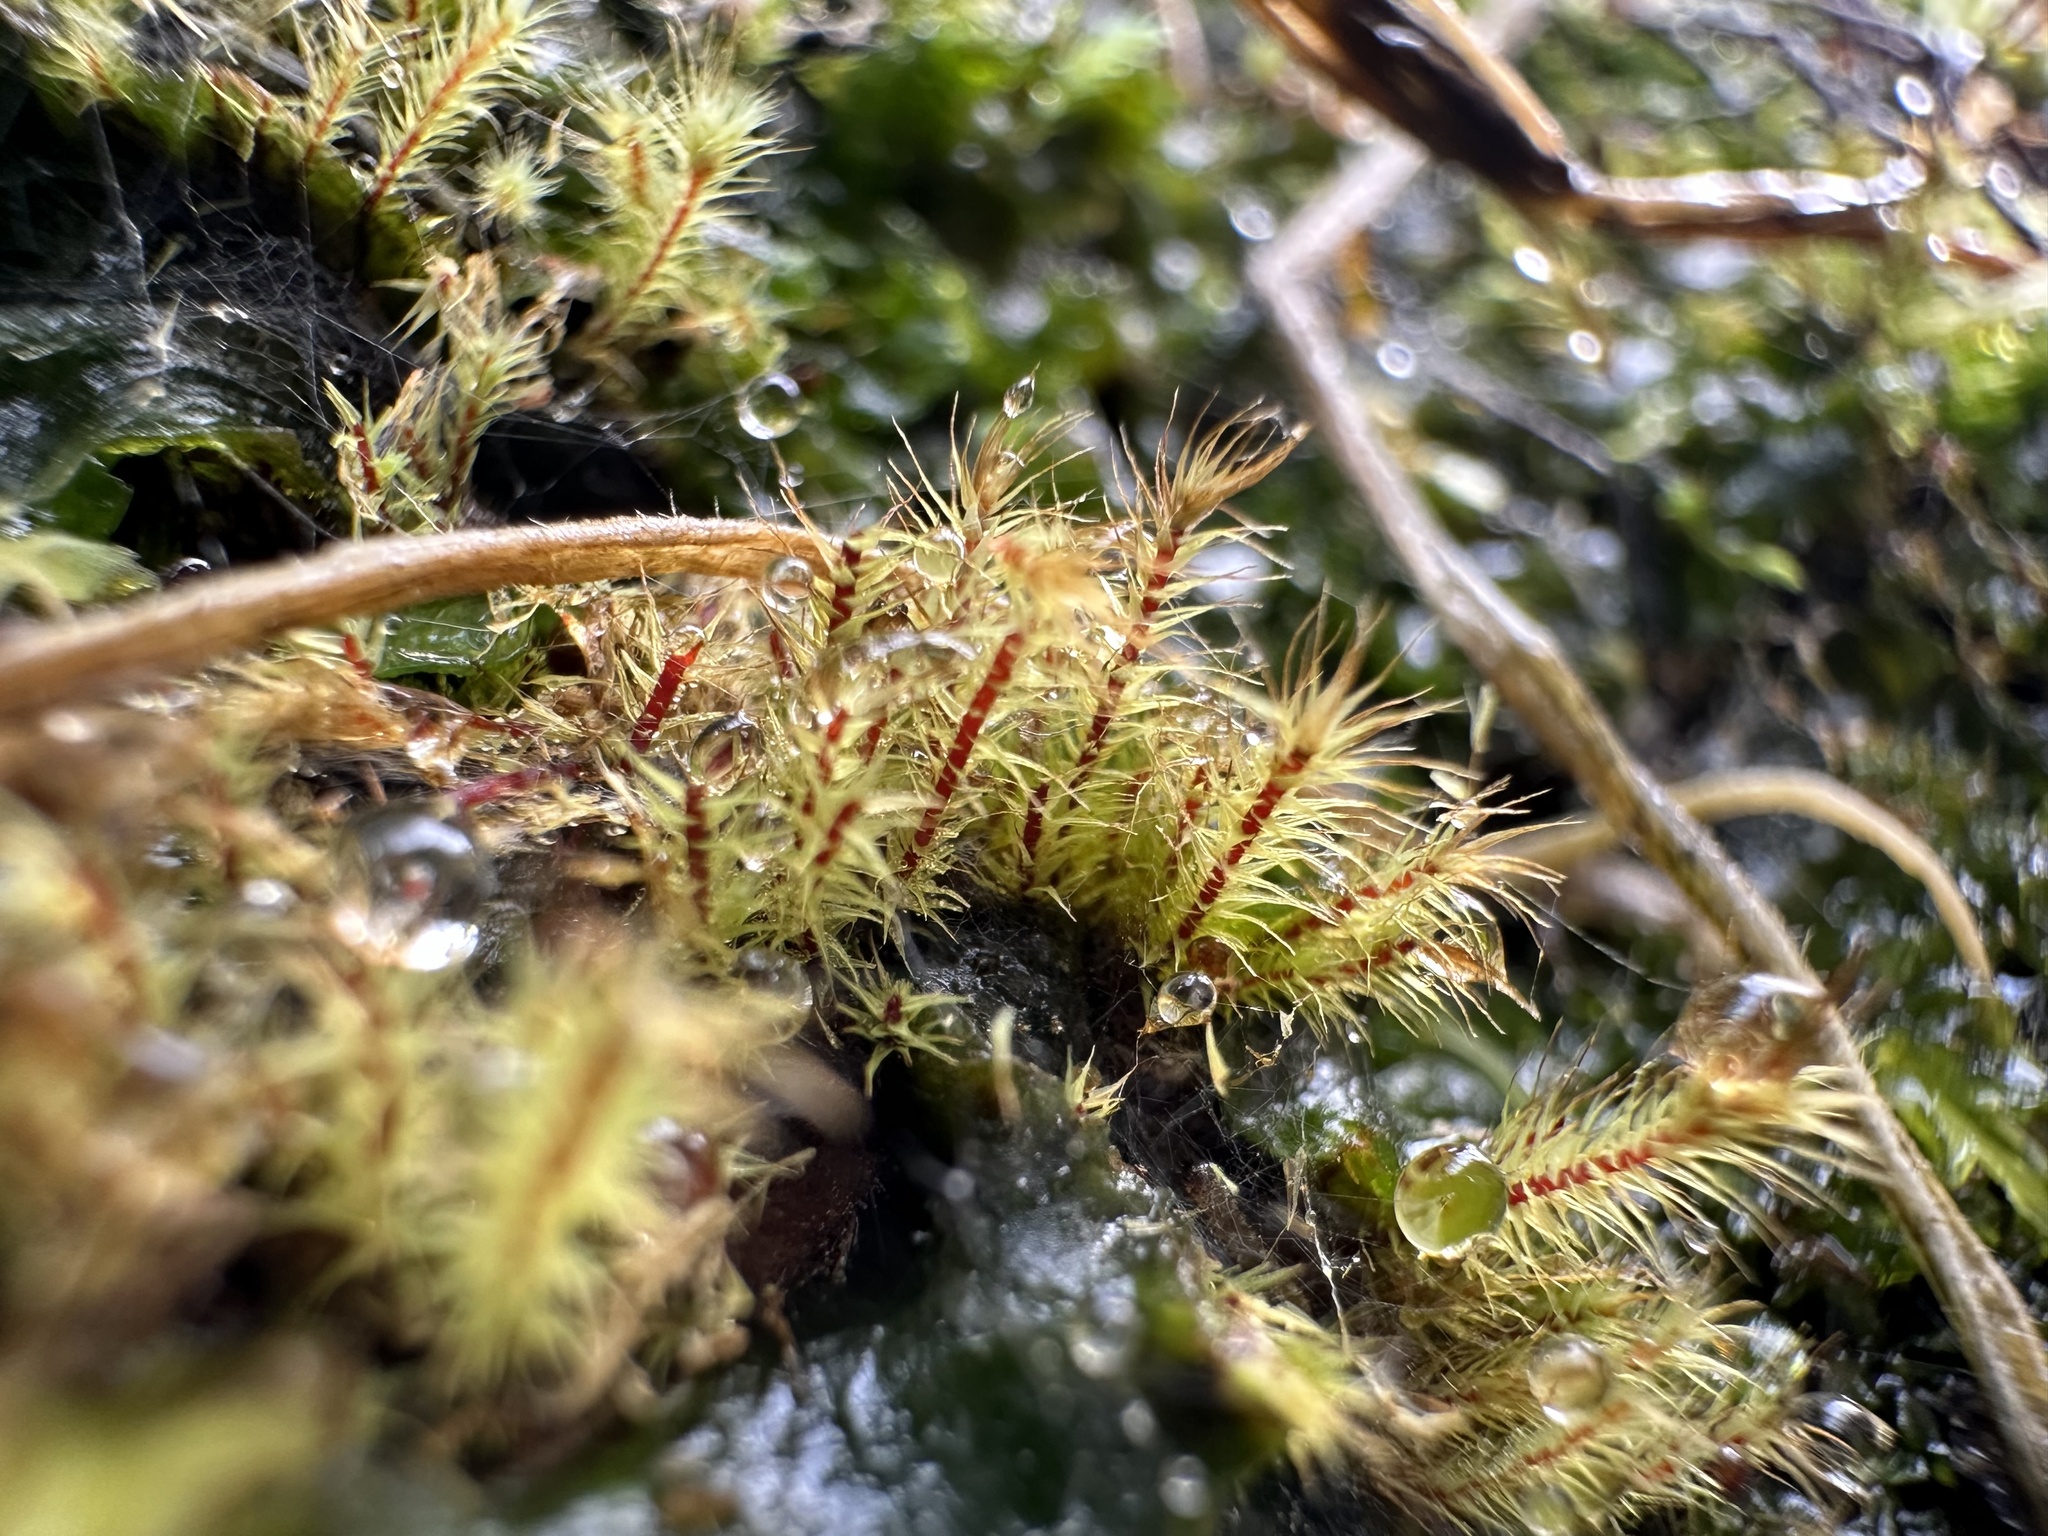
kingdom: Plantae
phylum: Bryophyta
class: Bryopsida
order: Bartramiales
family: Bartramiaceae
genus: Philonotis
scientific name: Philonotis tenuis
